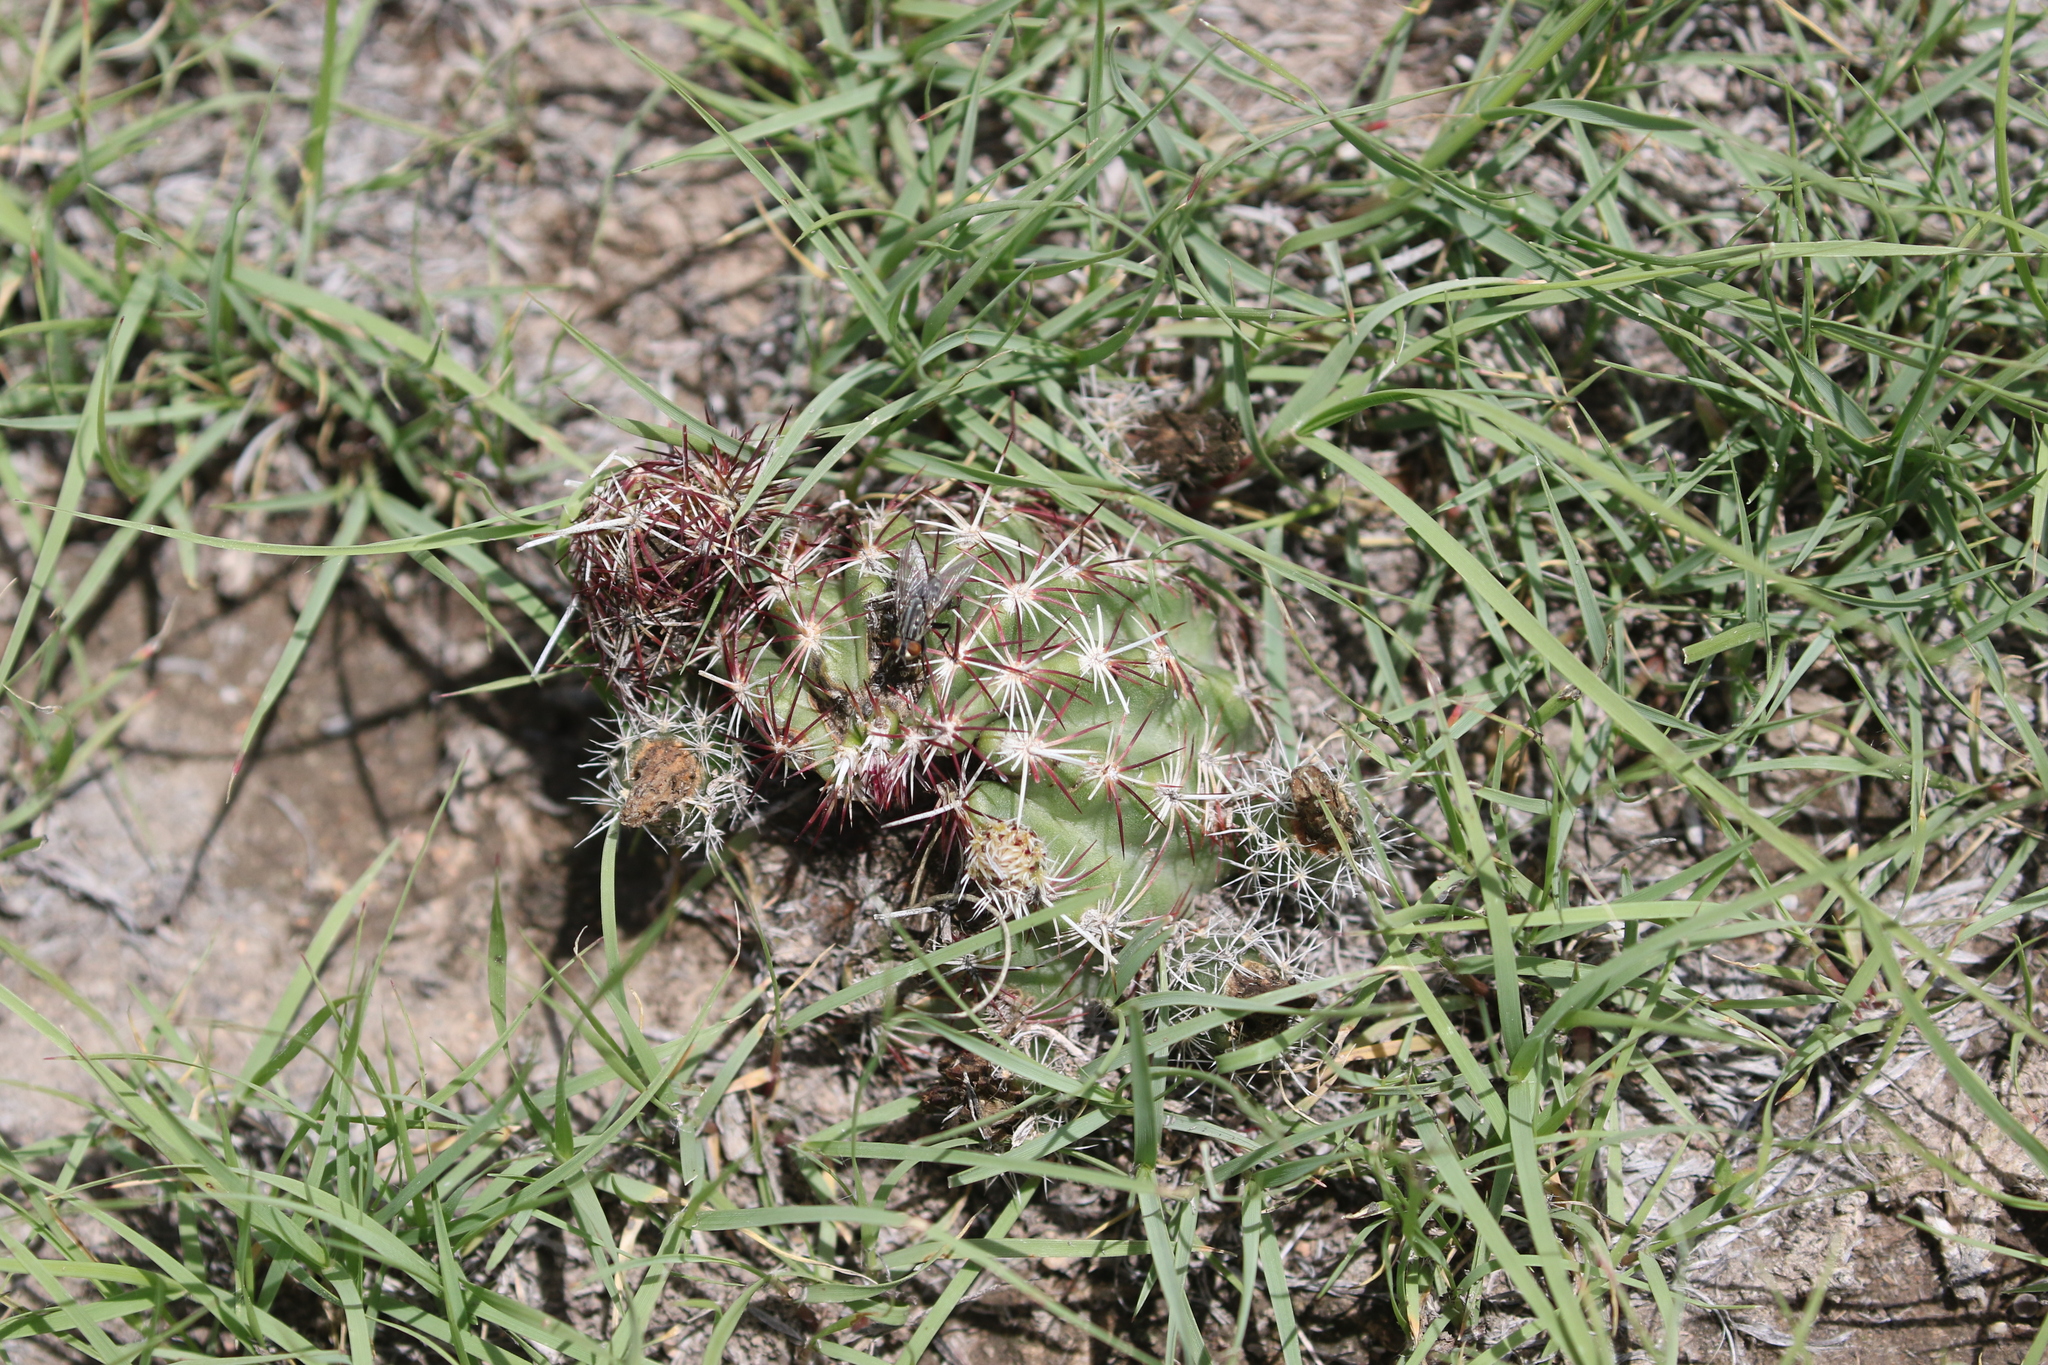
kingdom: Plantae
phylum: Tracheophyta
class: Magnoliopsida
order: Caryophyllales
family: Cactaceae
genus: Echinocereus
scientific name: Echinocereus viridiflorus
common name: Nylon hedgehog cactus
